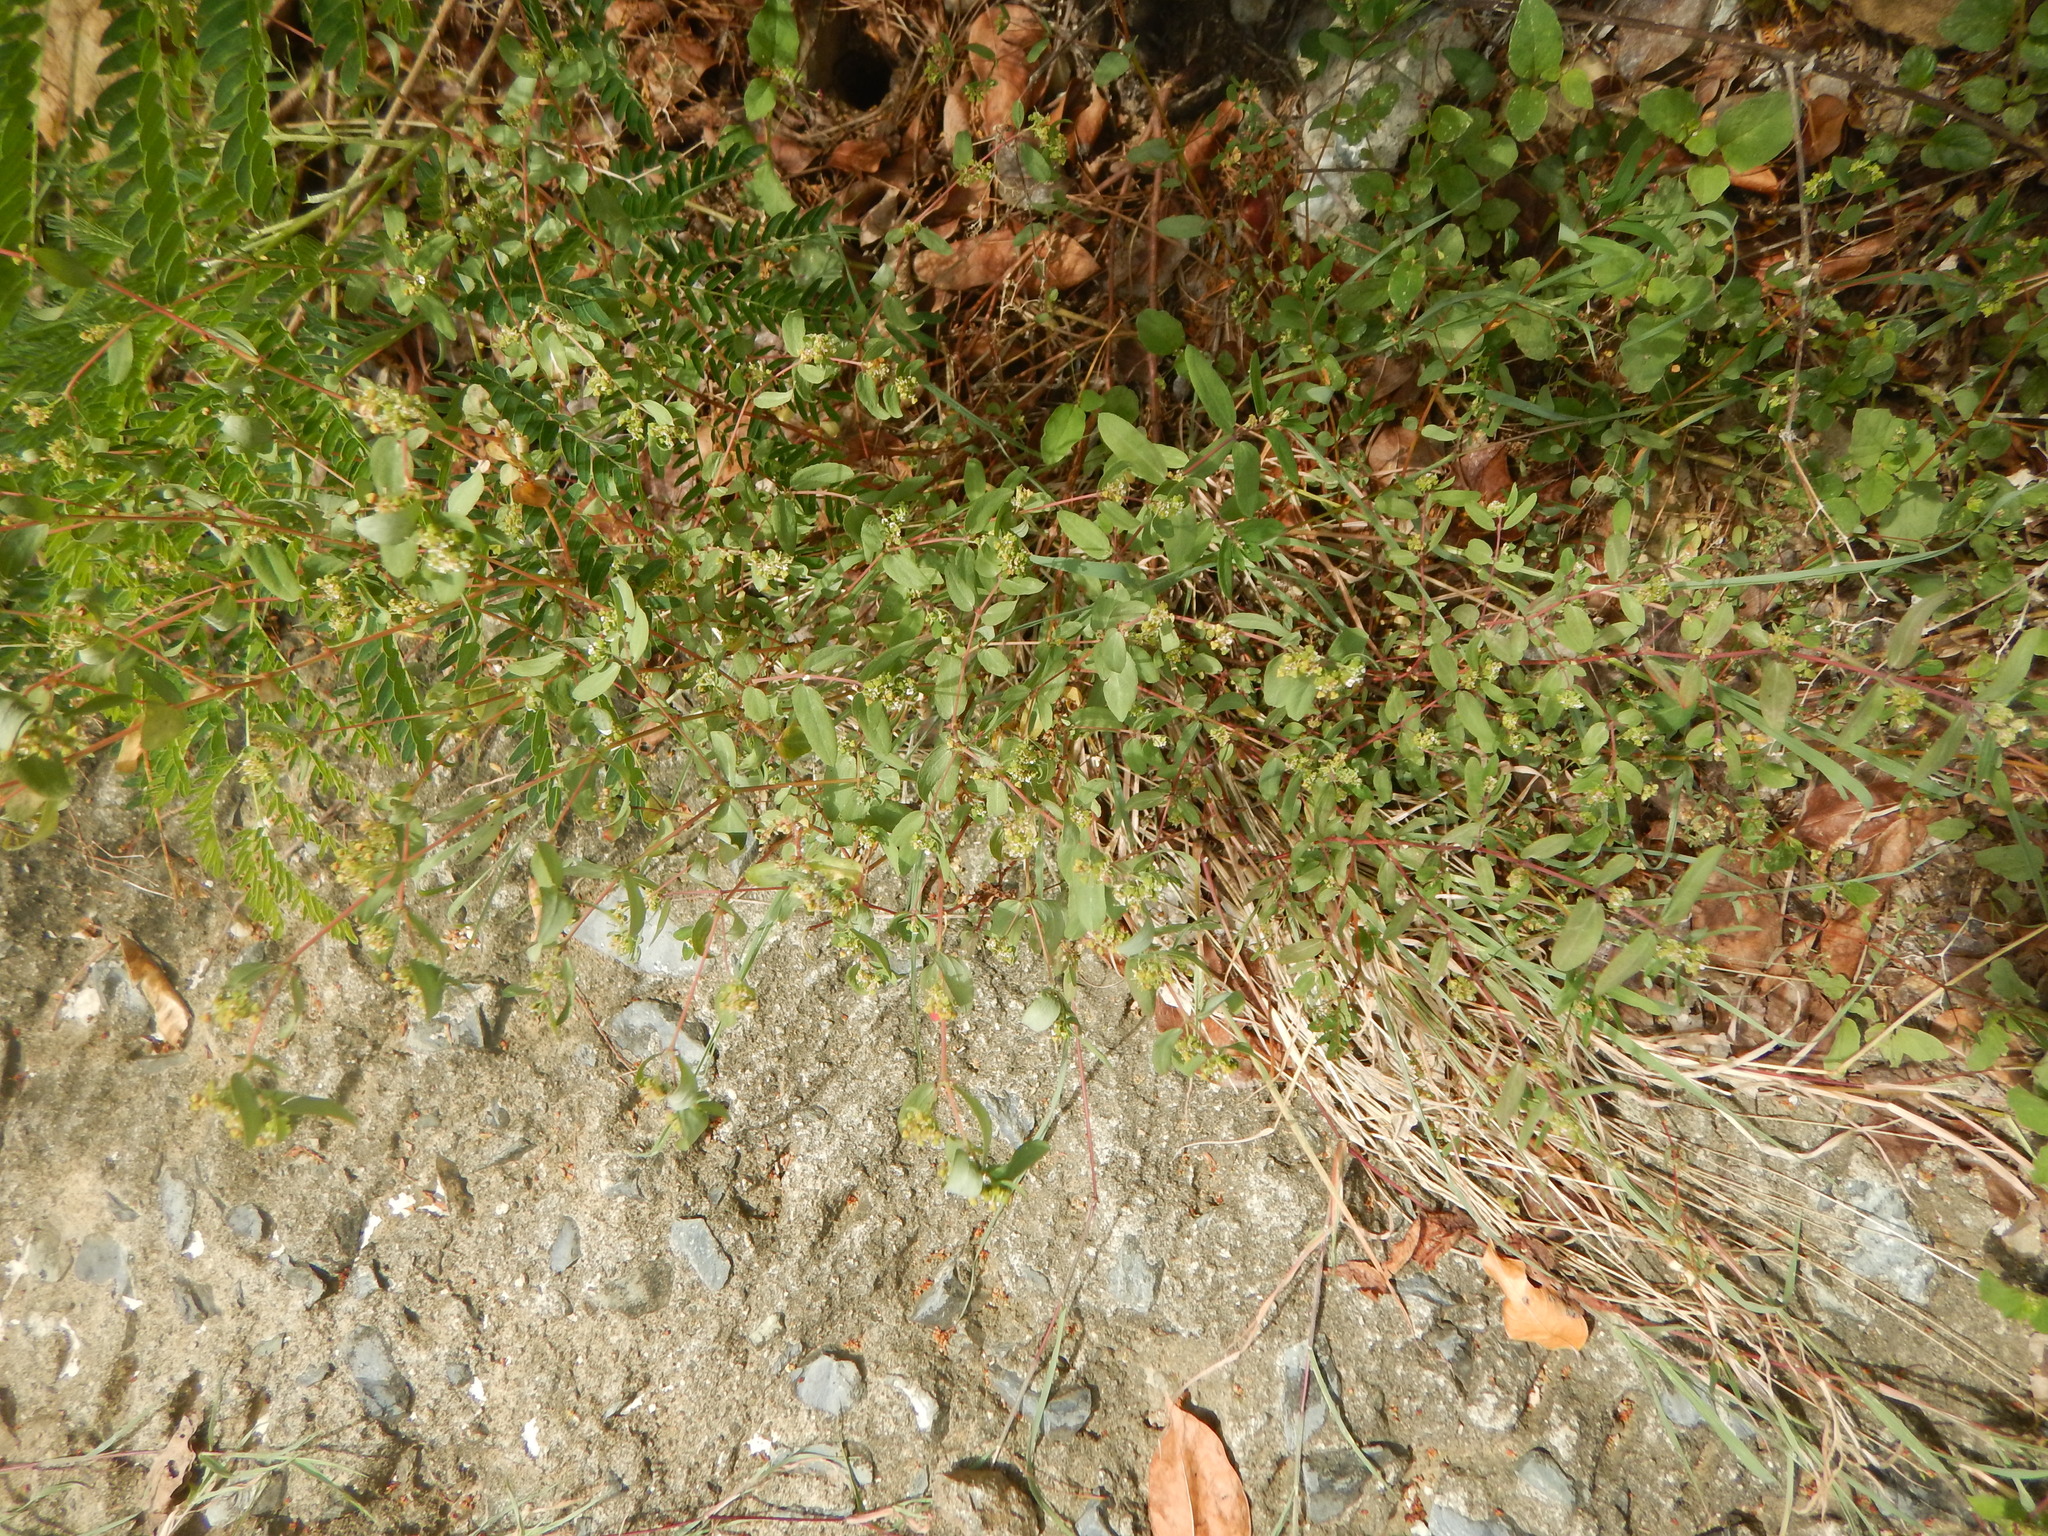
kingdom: Plantae
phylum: Tracheophyta
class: Magnoliopsida
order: Malpighiales
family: Euphorbiaceae
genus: Euphorbia
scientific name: Euphorbia hyssopifolia
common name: Hyssopleaf sandmat
